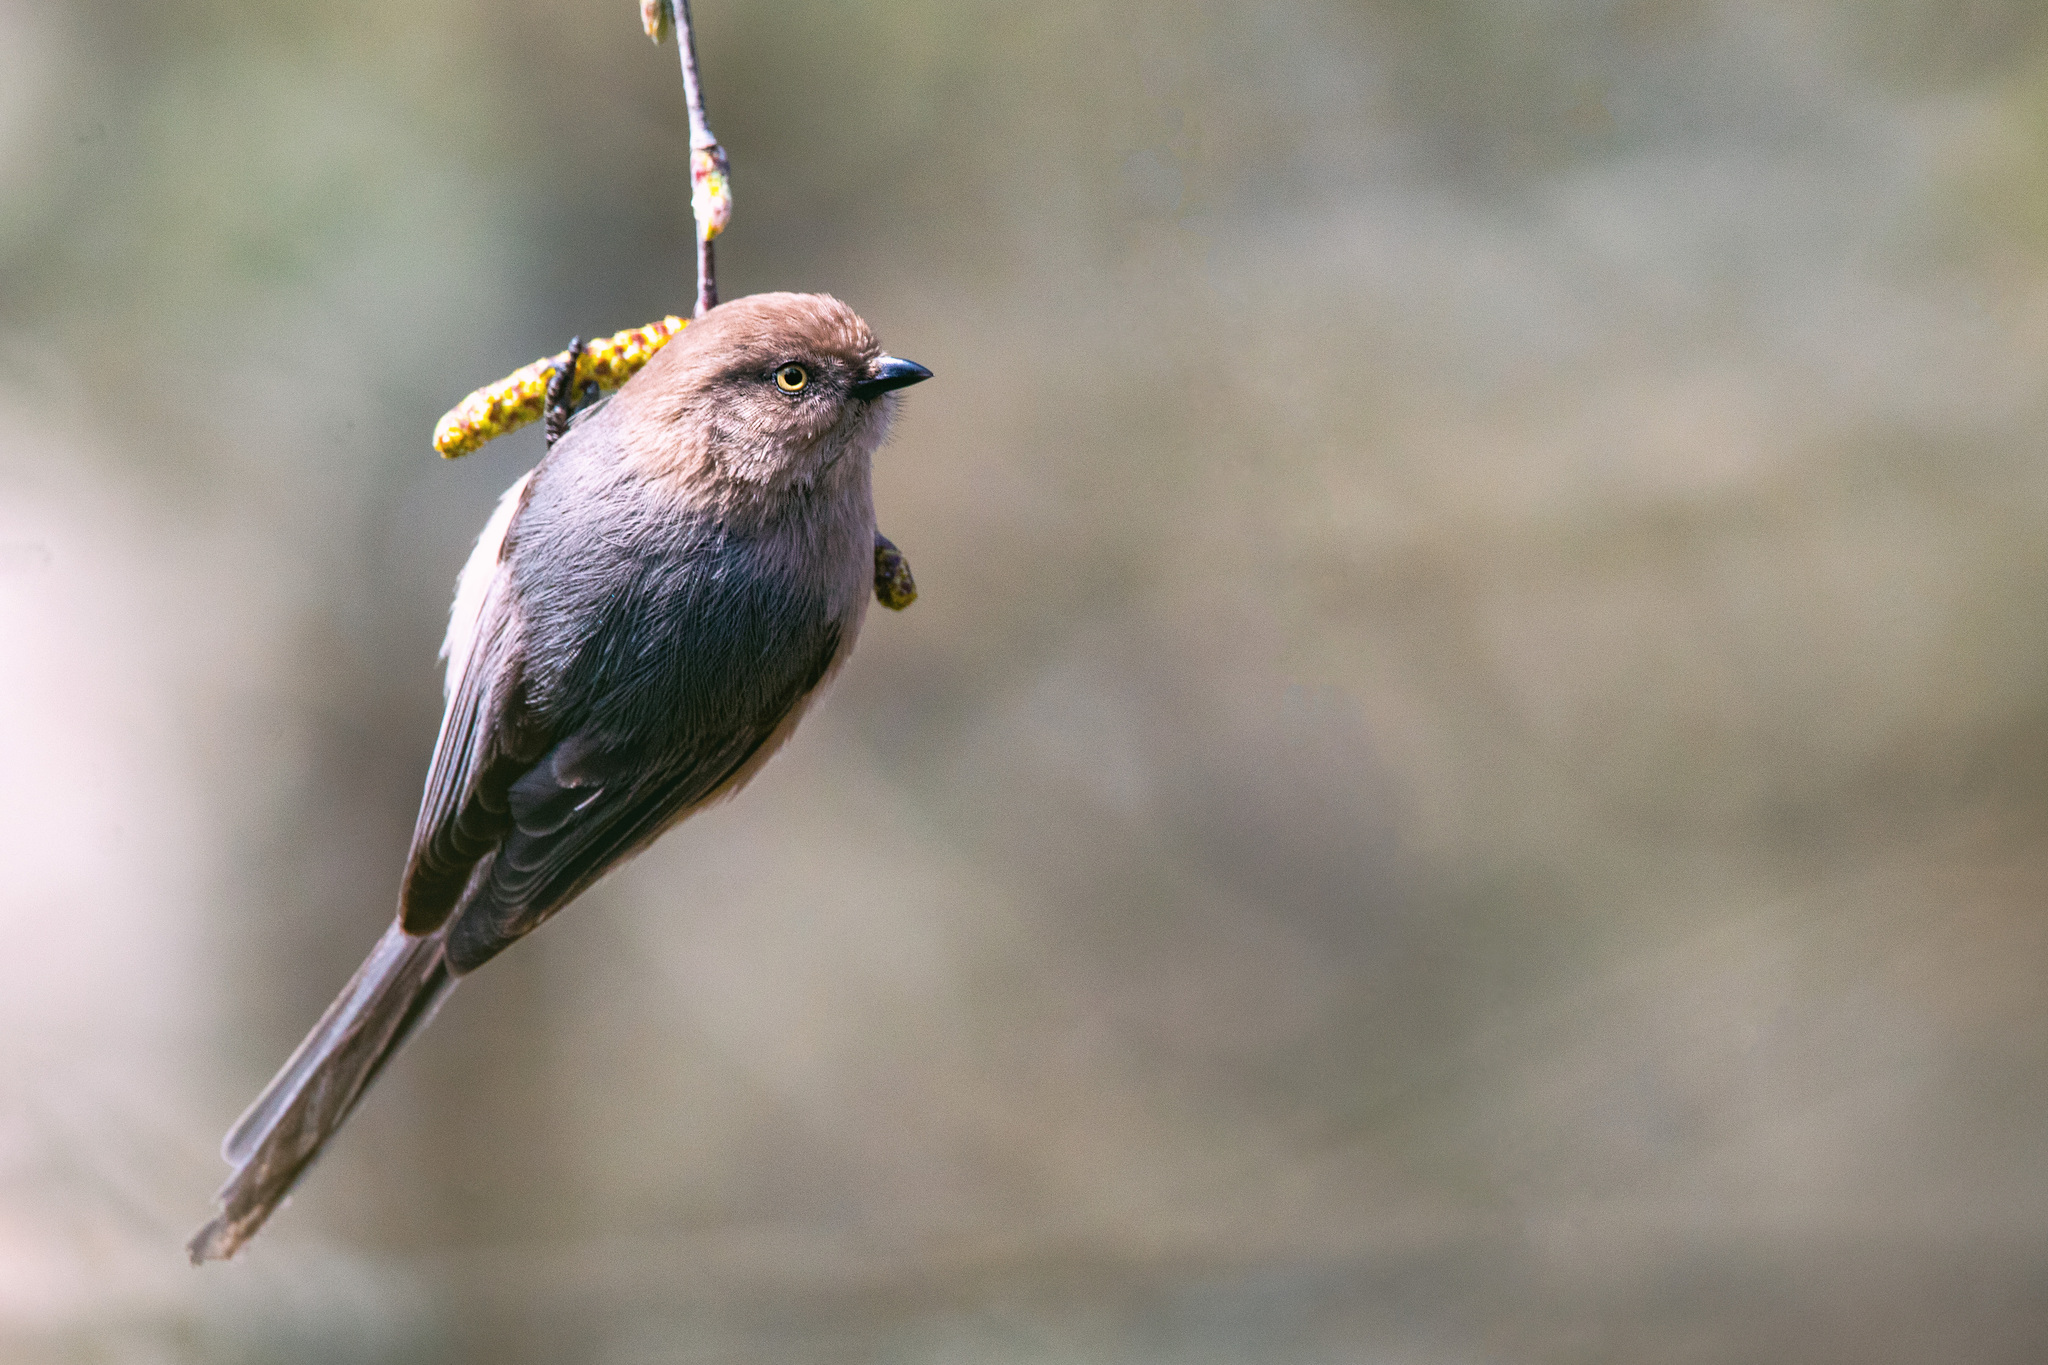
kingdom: Animalia
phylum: Chordata
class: Aves
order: Passeriformes
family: Aegithalidae
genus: Psaltriparus
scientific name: Psaltriparus minimus
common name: American bushtit
